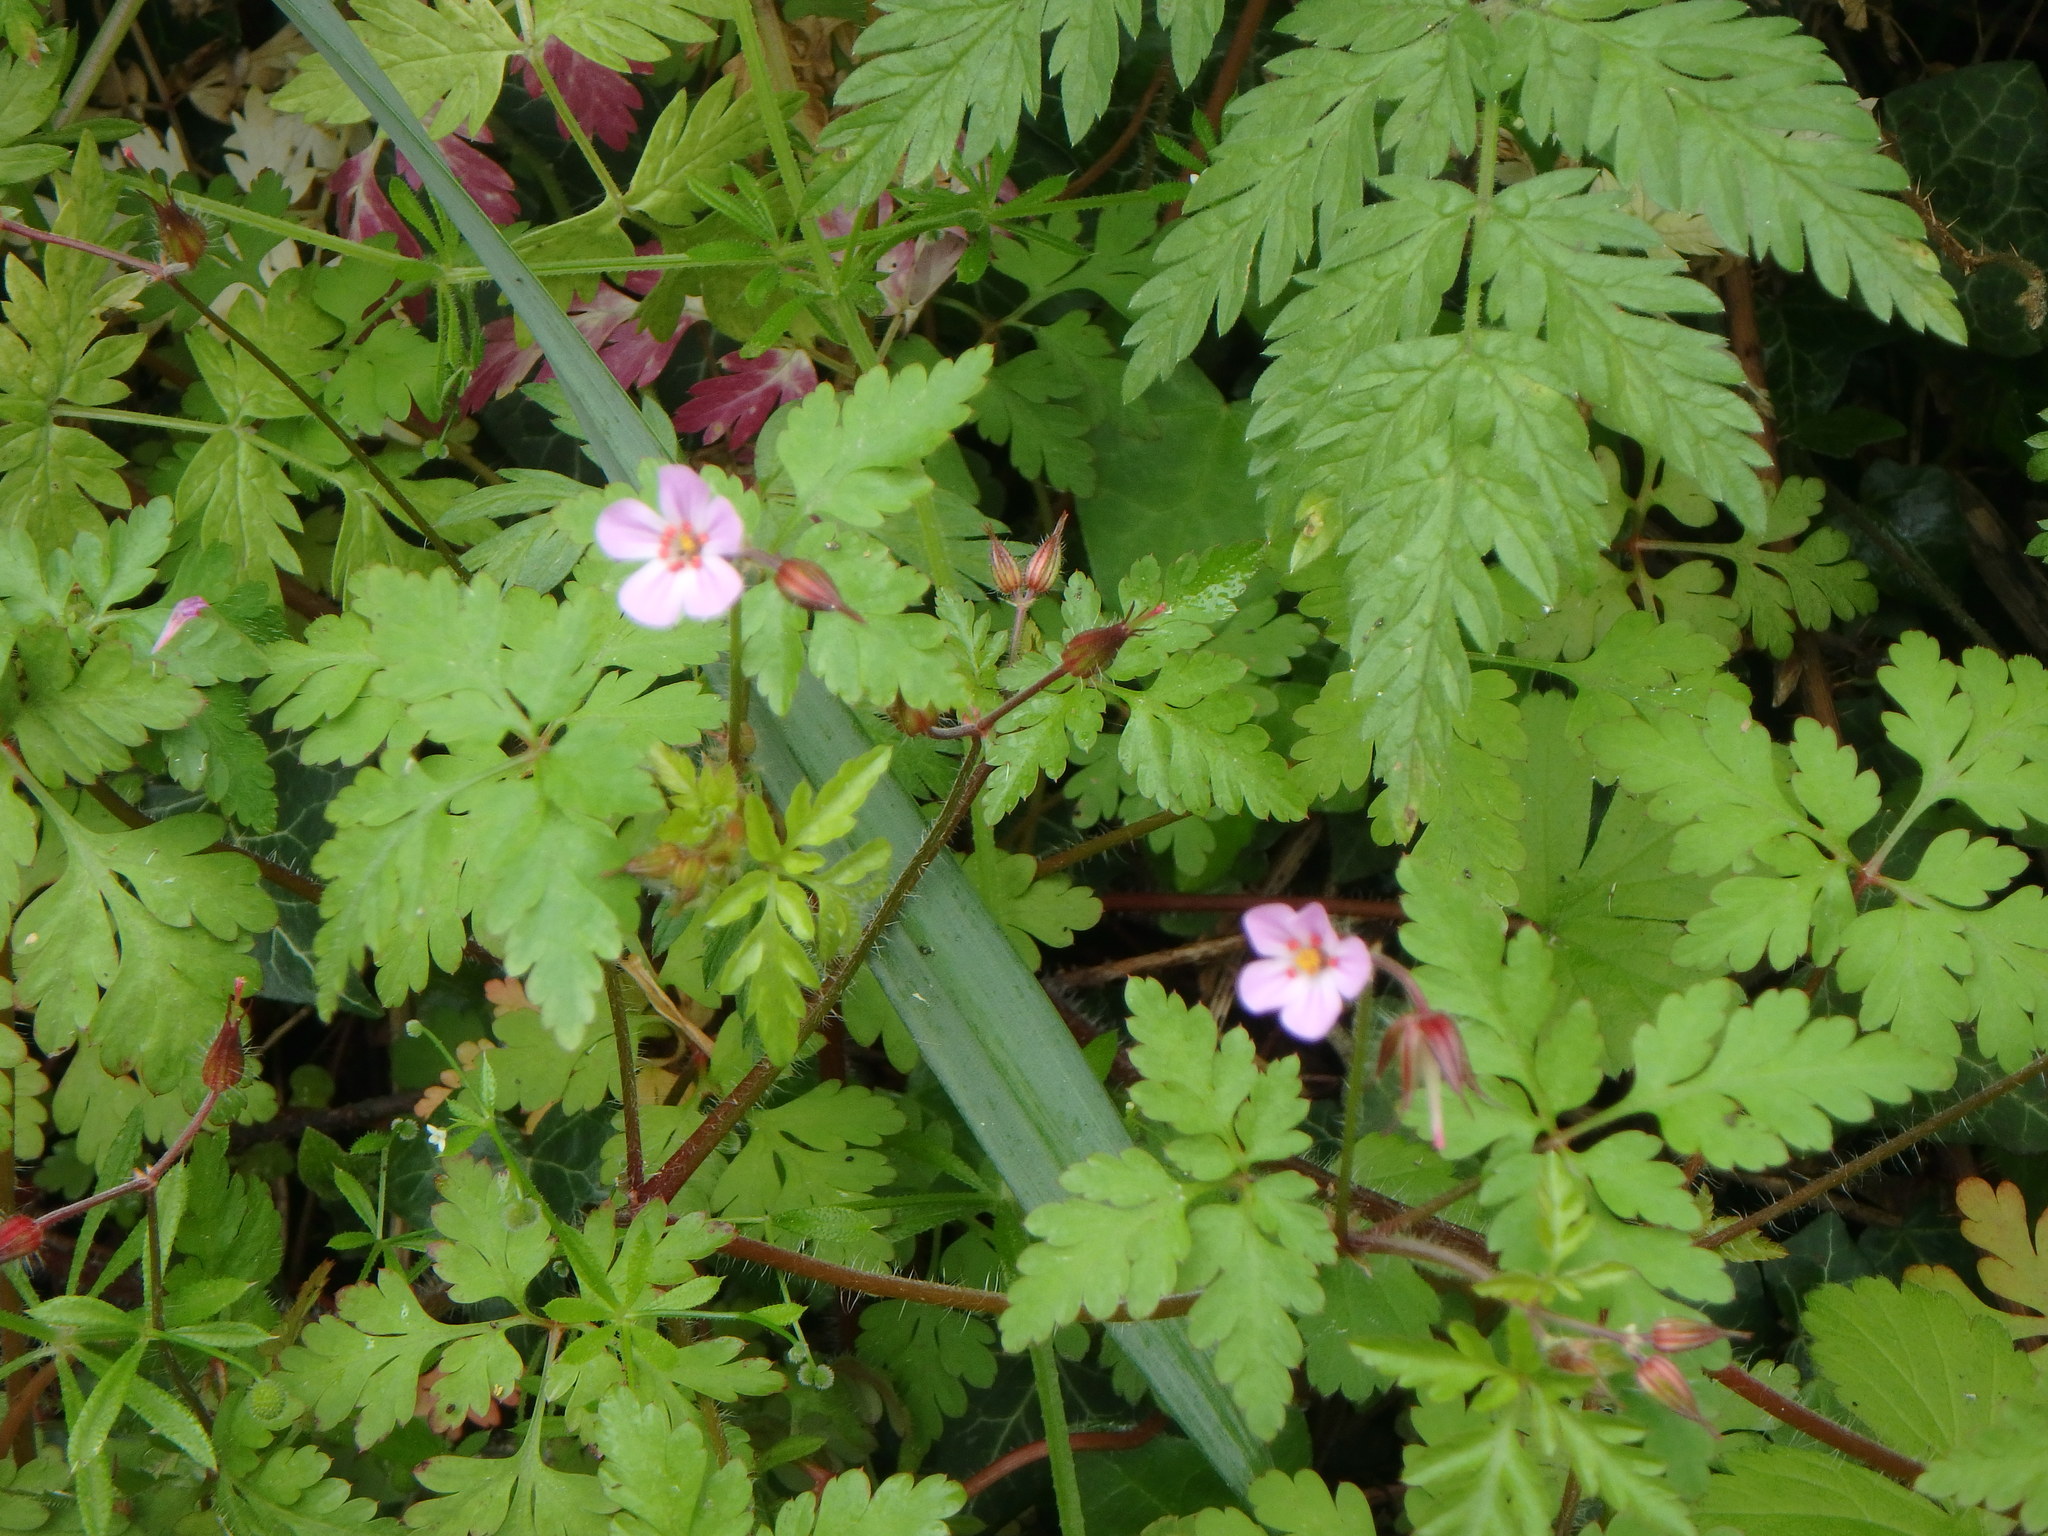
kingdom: Plantae
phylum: Tracheophyta
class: Magnoliopsida
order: Geraniales
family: Geraniaceae
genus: Geranium
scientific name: Geranium robertianum
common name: Herb-robert
